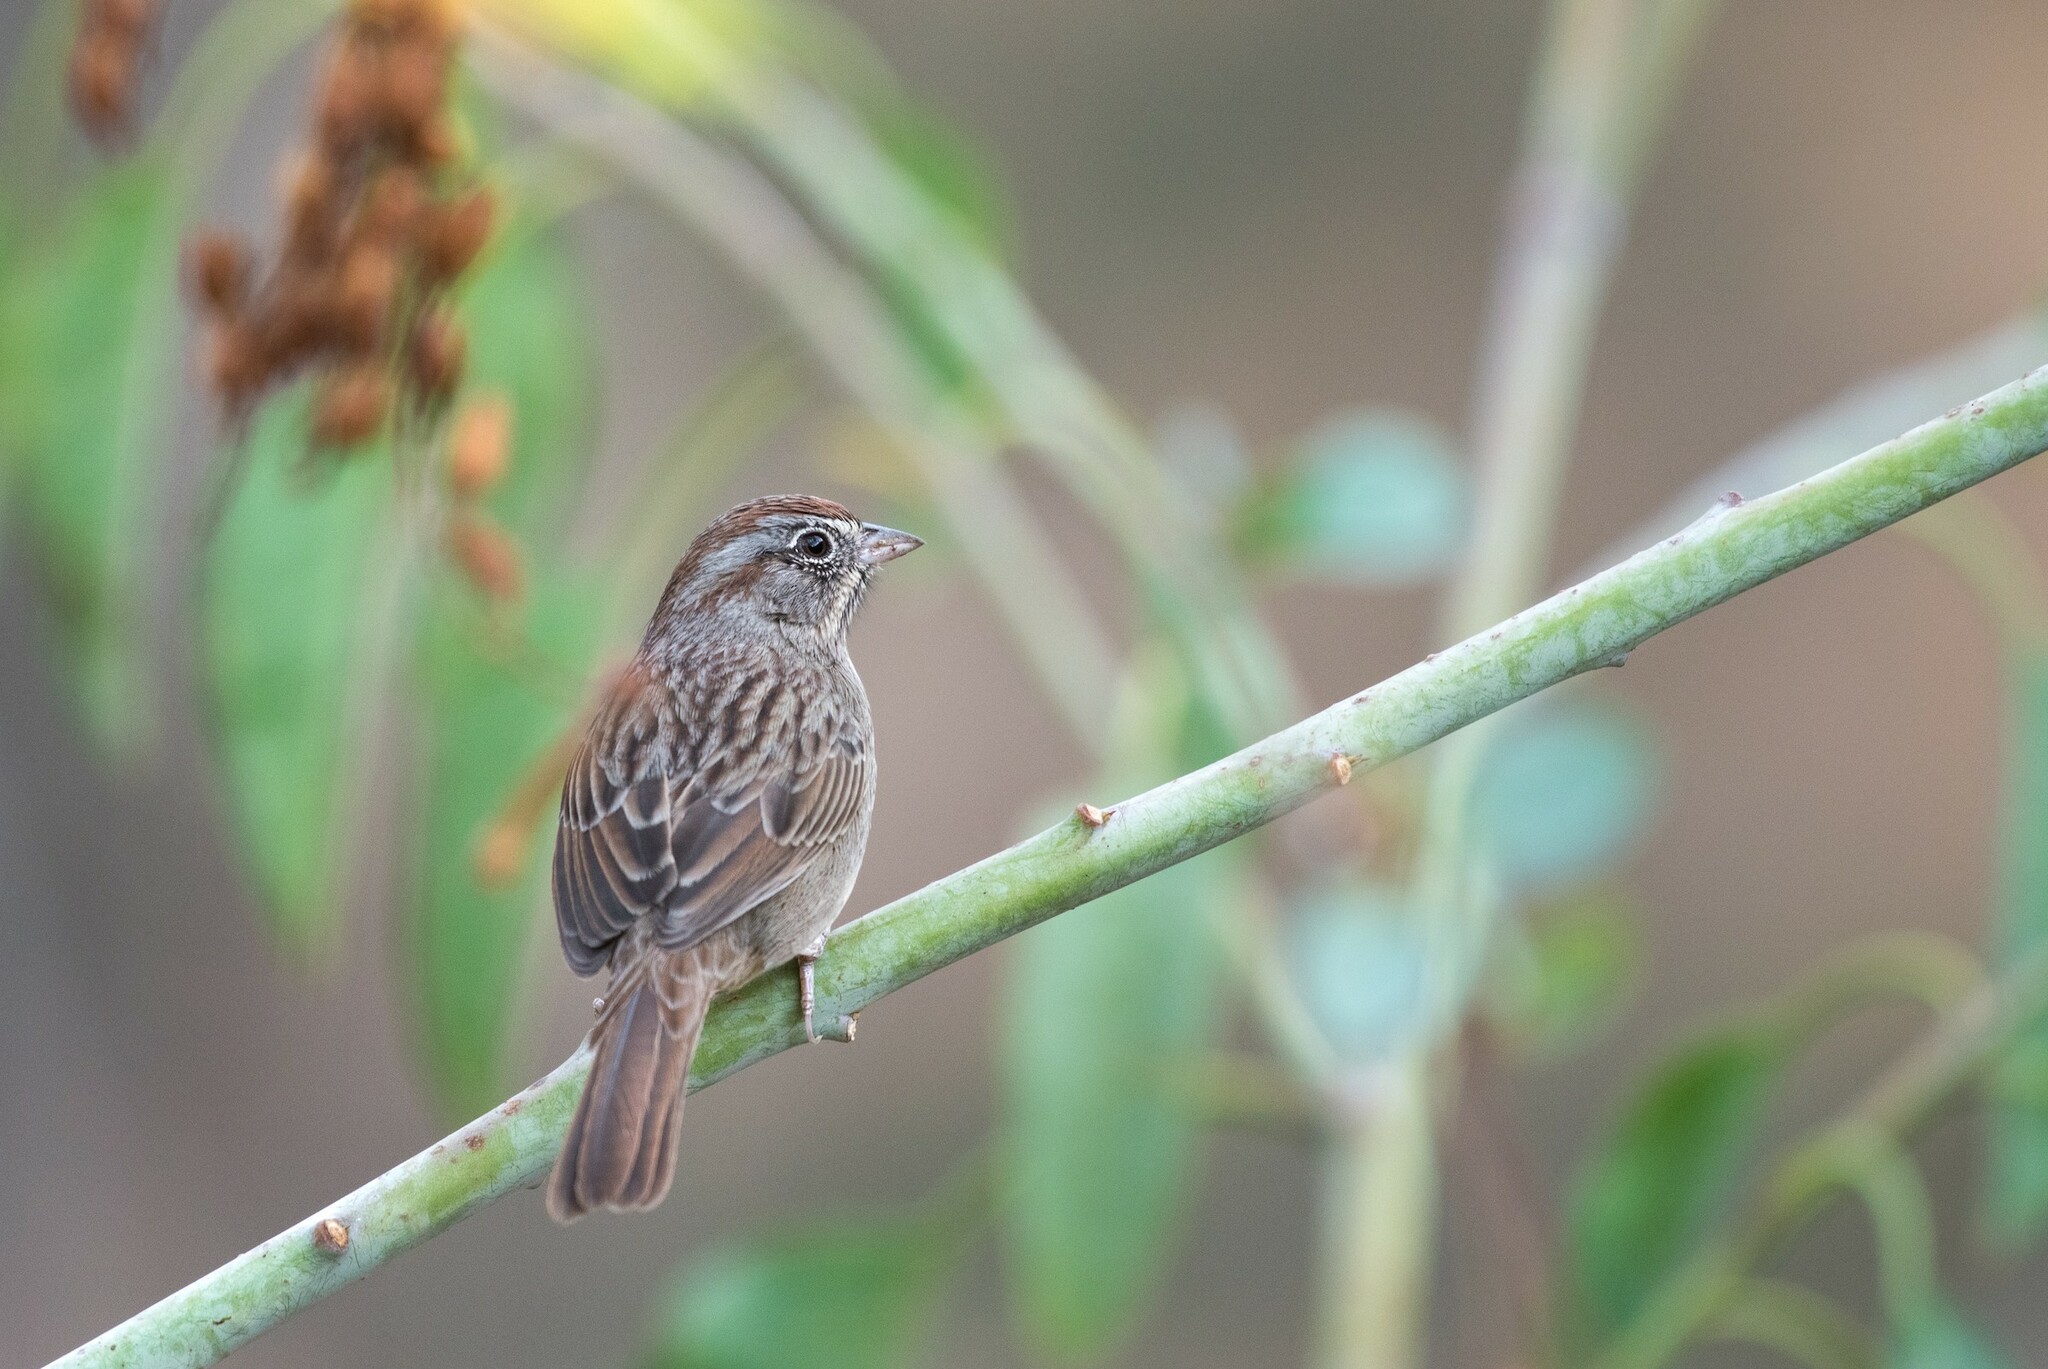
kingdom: Animalia
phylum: Chordata
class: Aves
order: Passeriformes
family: Passerellidae
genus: Aimophila
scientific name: Aimophila ruficeps
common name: Rufous-crowned sparrow
